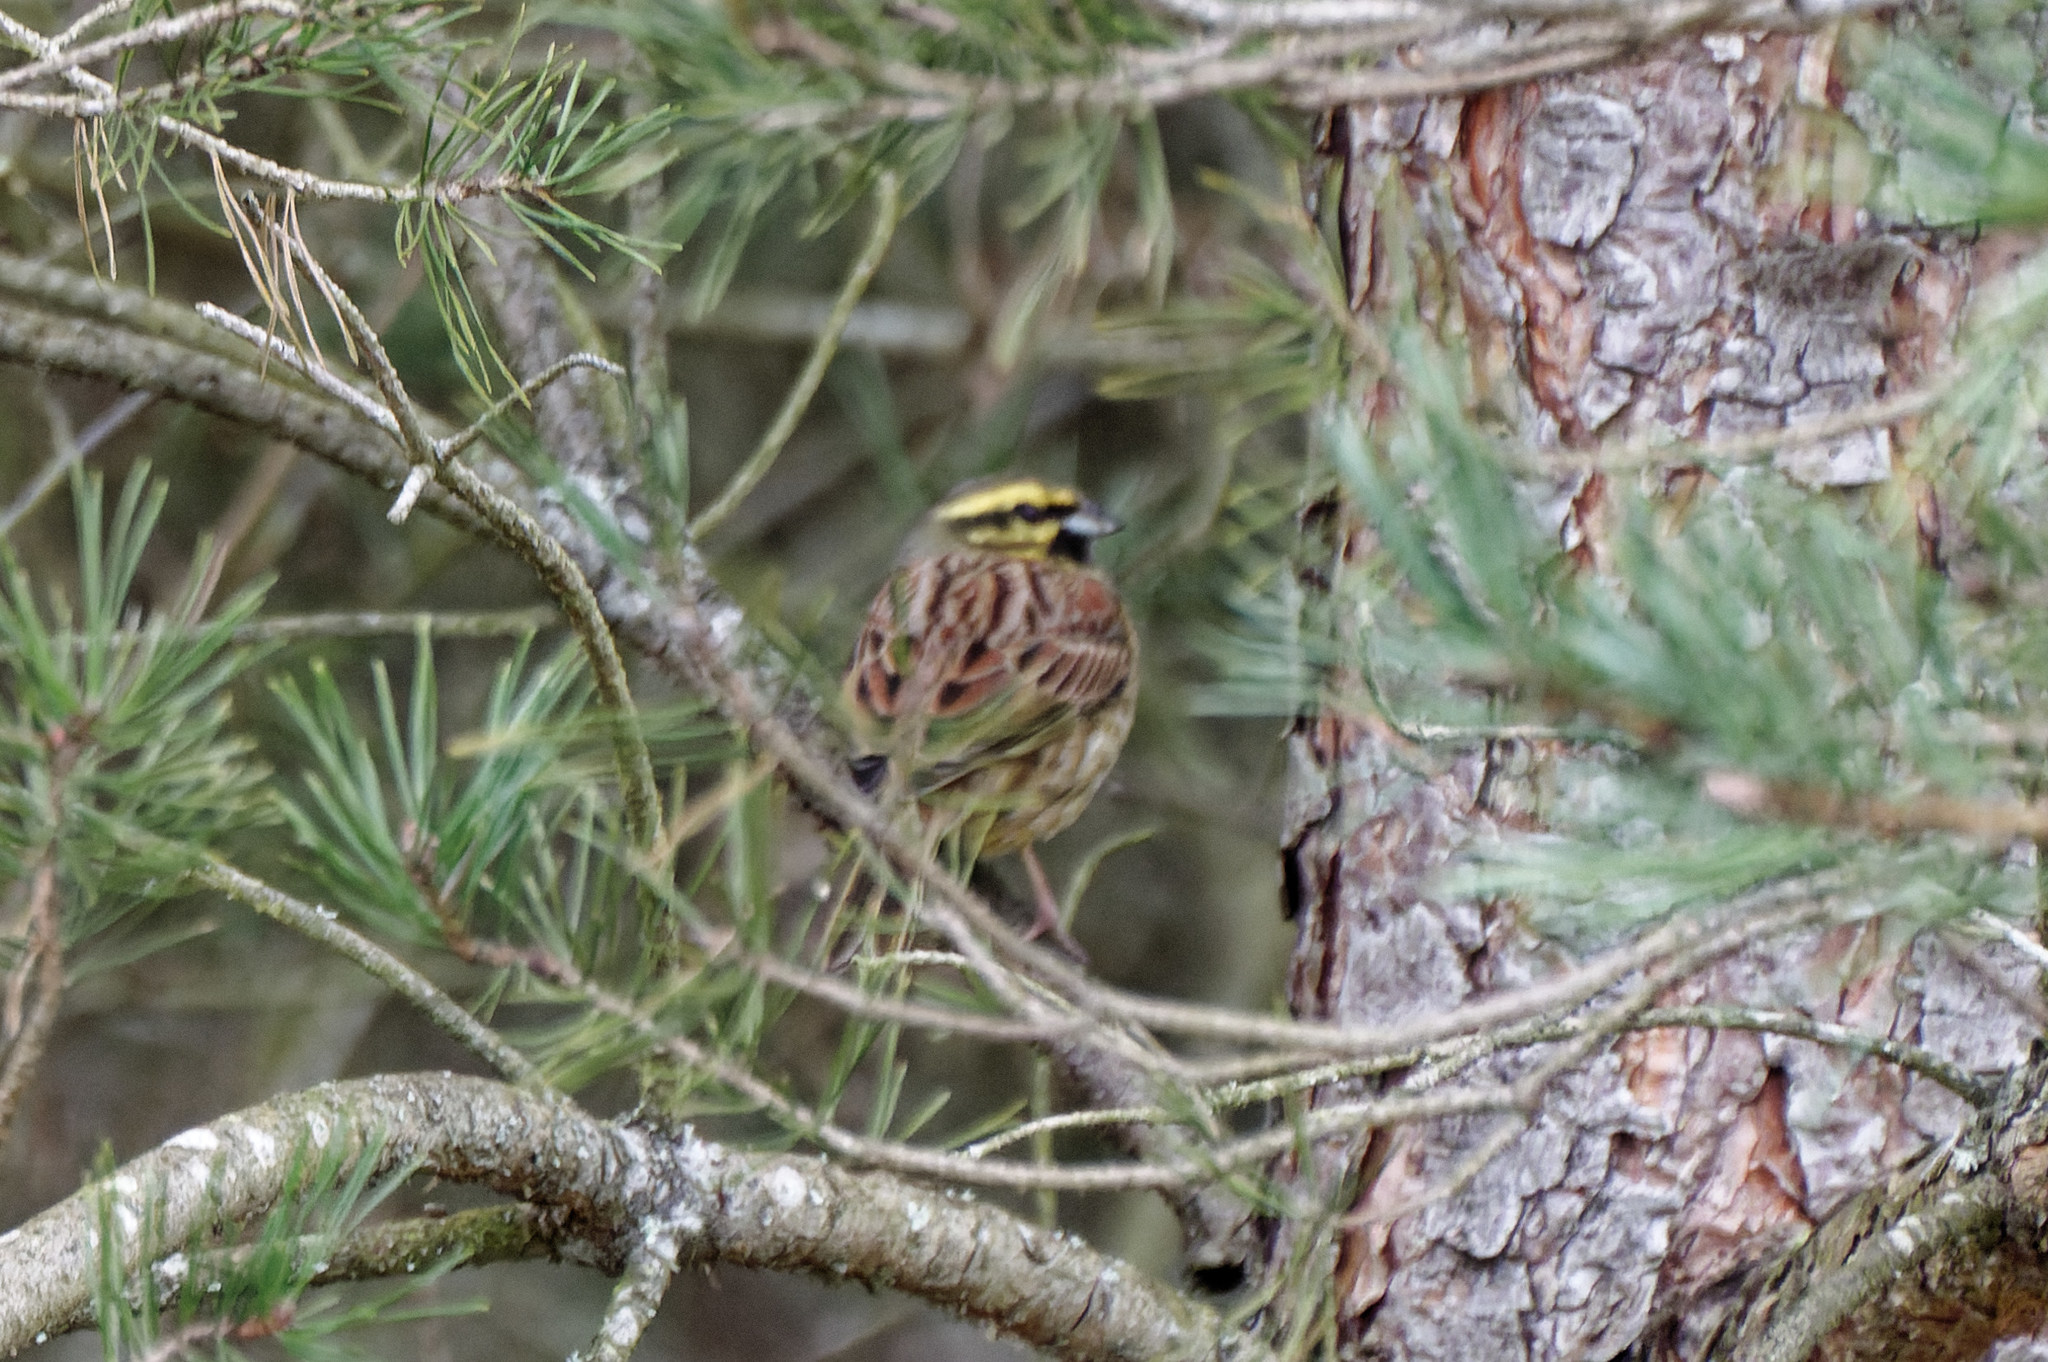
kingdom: Animalia
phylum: Chordata
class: Aves
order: Passeriformes
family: Emberizidae
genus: Emberiza
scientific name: Emberiza cirlus
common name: Cirl bunting
